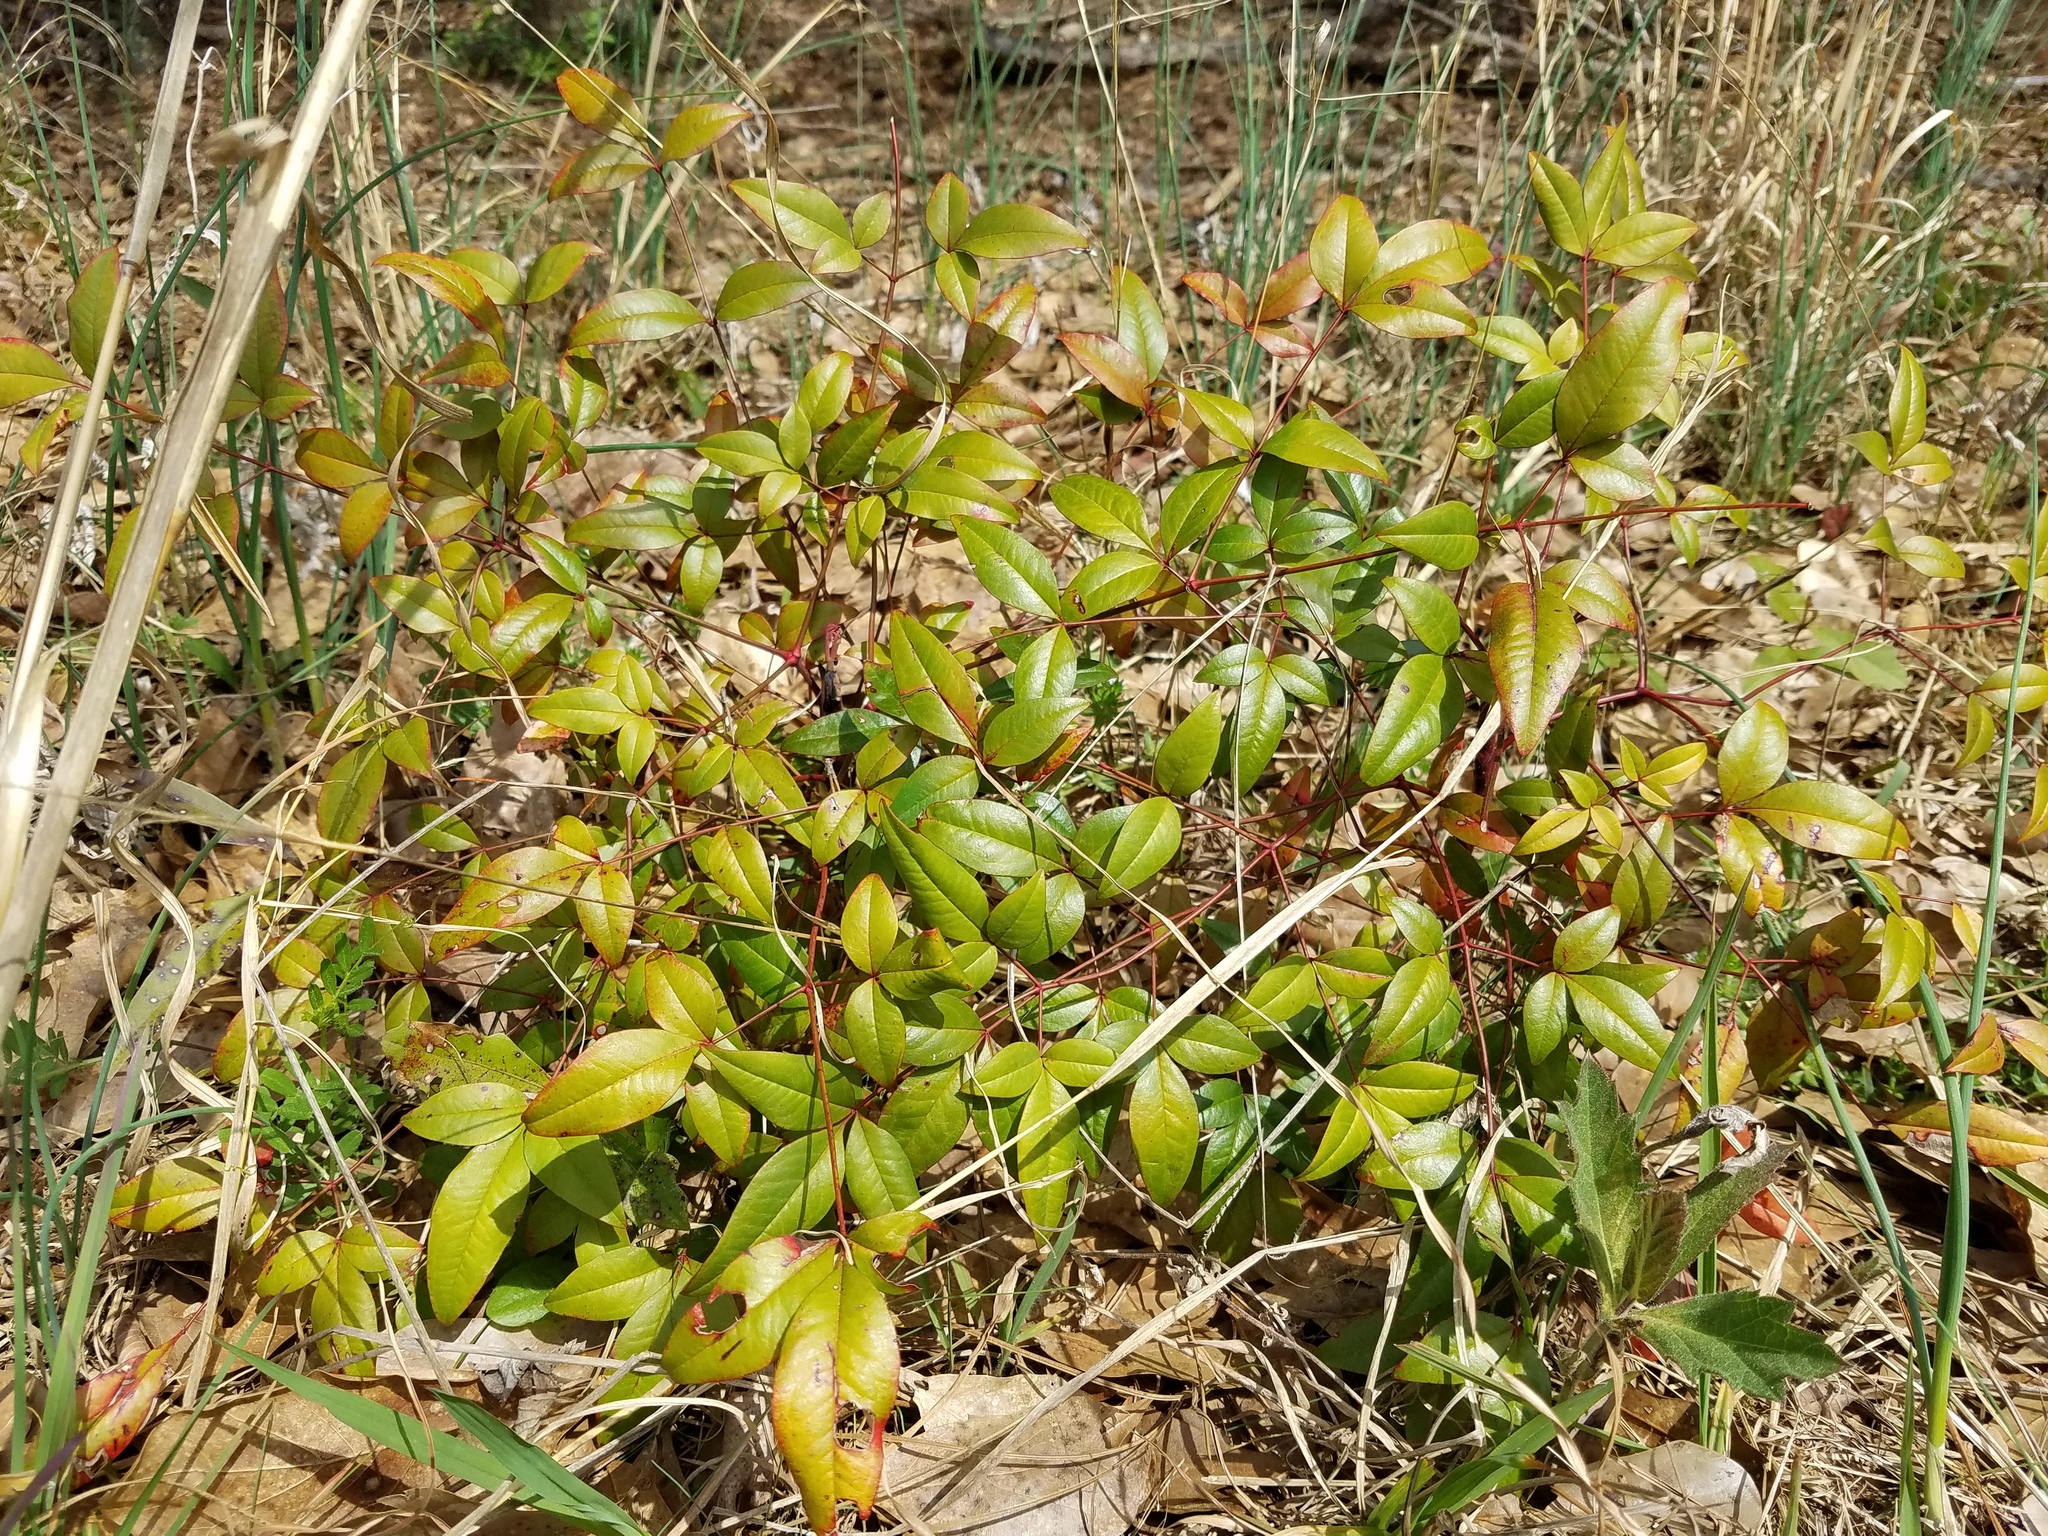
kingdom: Plantae
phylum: Tracheophyta
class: Magnoliopsida
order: Ranunculales
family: Berberidaceae
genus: Nandina
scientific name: Nandina domestica
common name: Sacred bamboo
